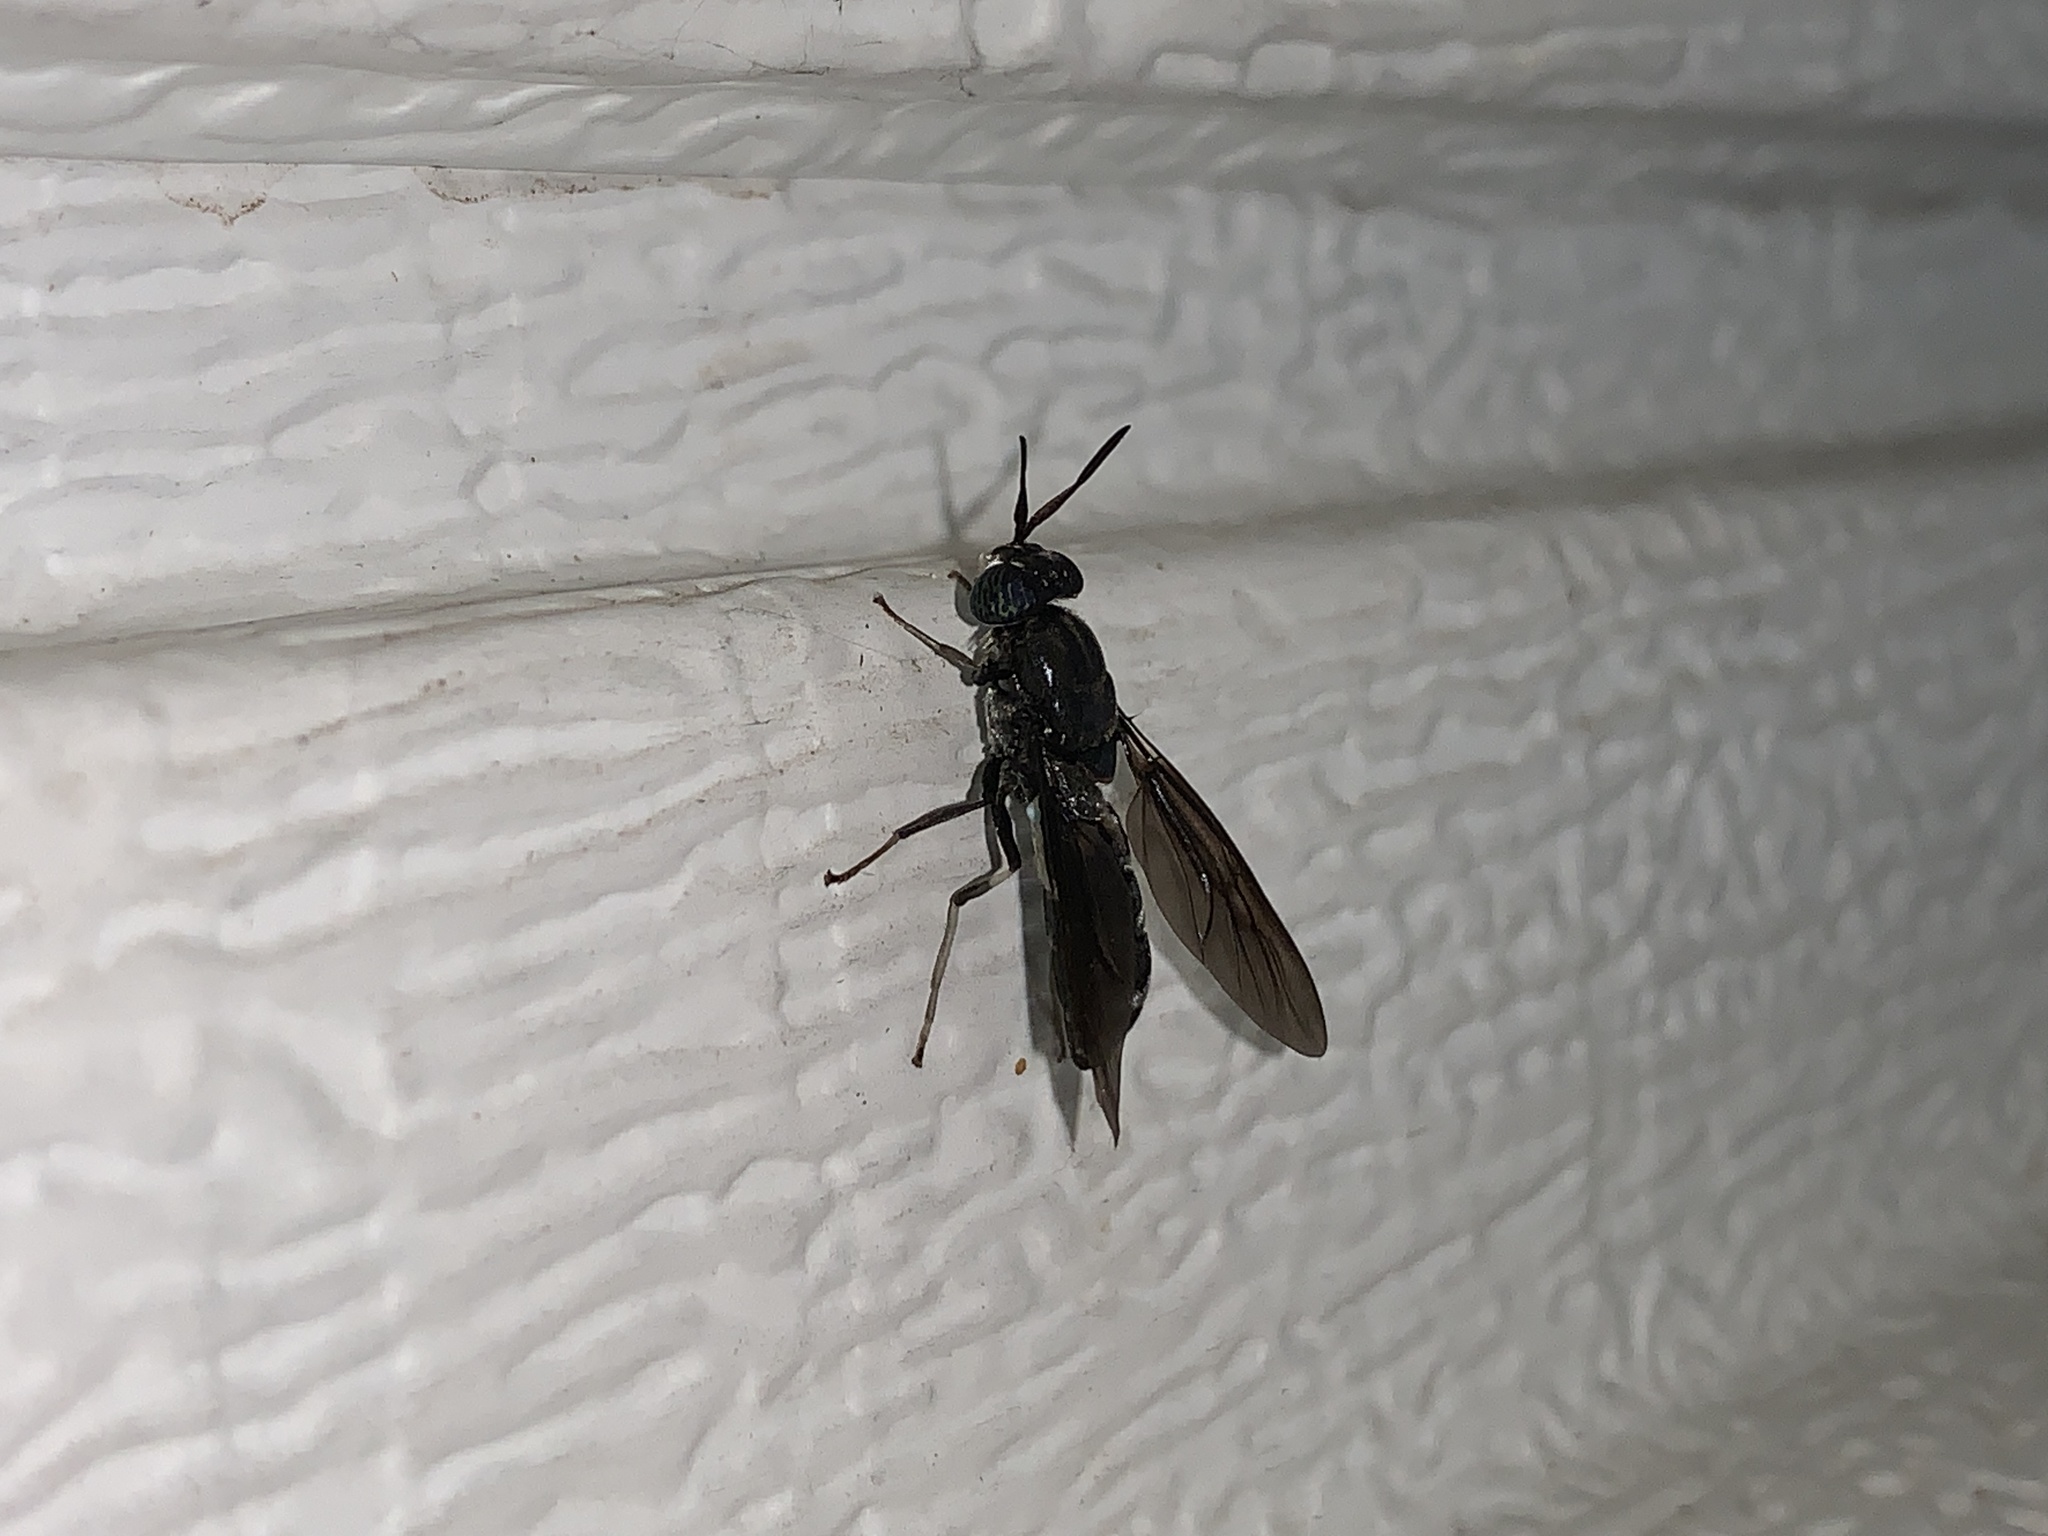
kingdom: Animalia
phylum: Arthropoda
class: Insecta
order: Diptera
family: Stratiomyidae
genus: Hermetia
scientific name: Hermetia illucens
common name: Black soldier fly
